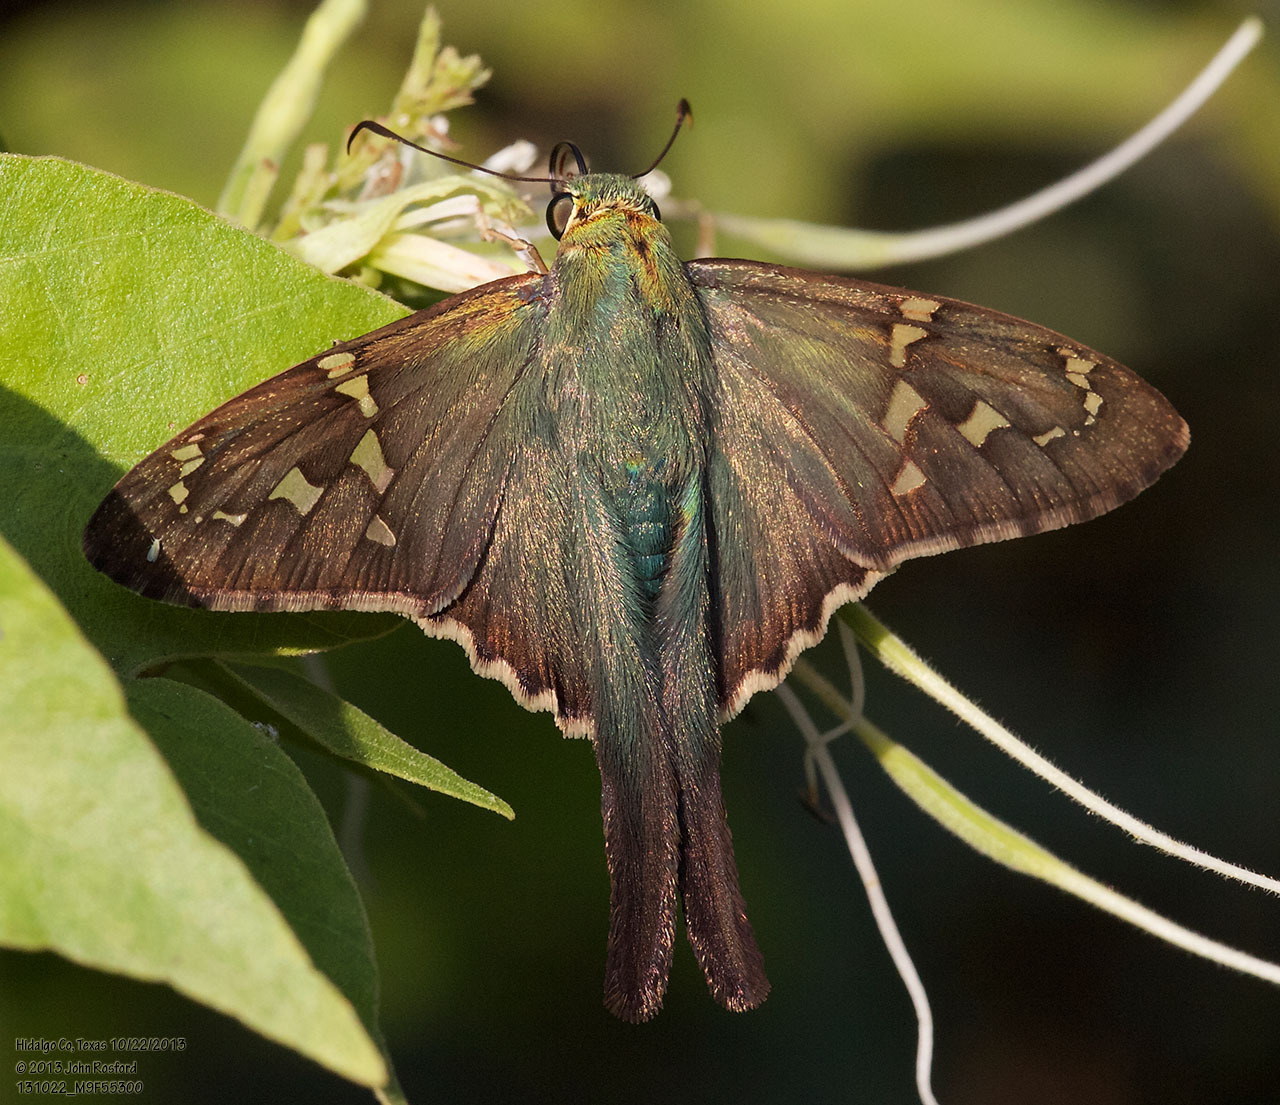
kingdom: Animalia
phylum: Arthropoda
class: Insecta
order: Lepidoptera
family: Hesperiidae
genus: Urbanus
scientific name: Urbanus proteus
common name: Long-tailed skipper
